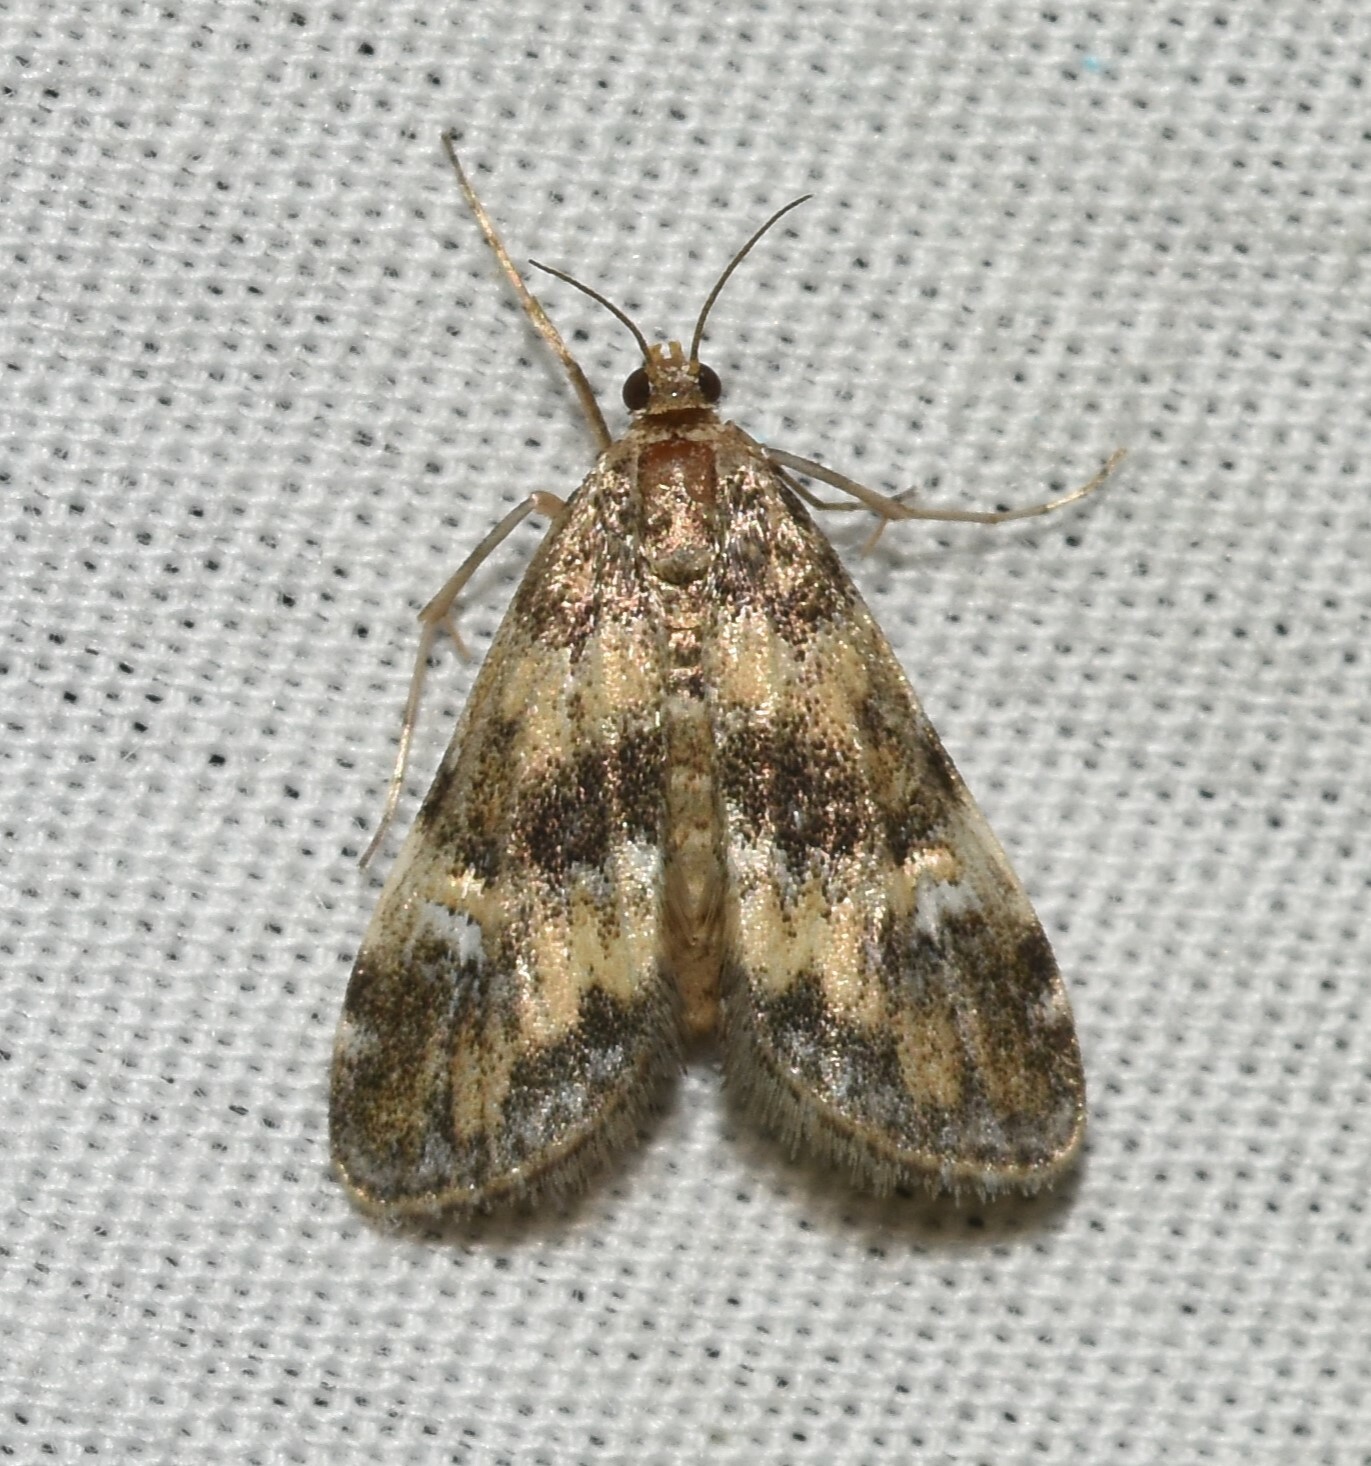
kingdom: Animalia
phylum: Arthropoda
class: Insecta
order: Lepidoptera
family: Crambidae
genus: Elophila
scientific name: Elophila obliteralis
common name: Waterlily leafcutter moth
